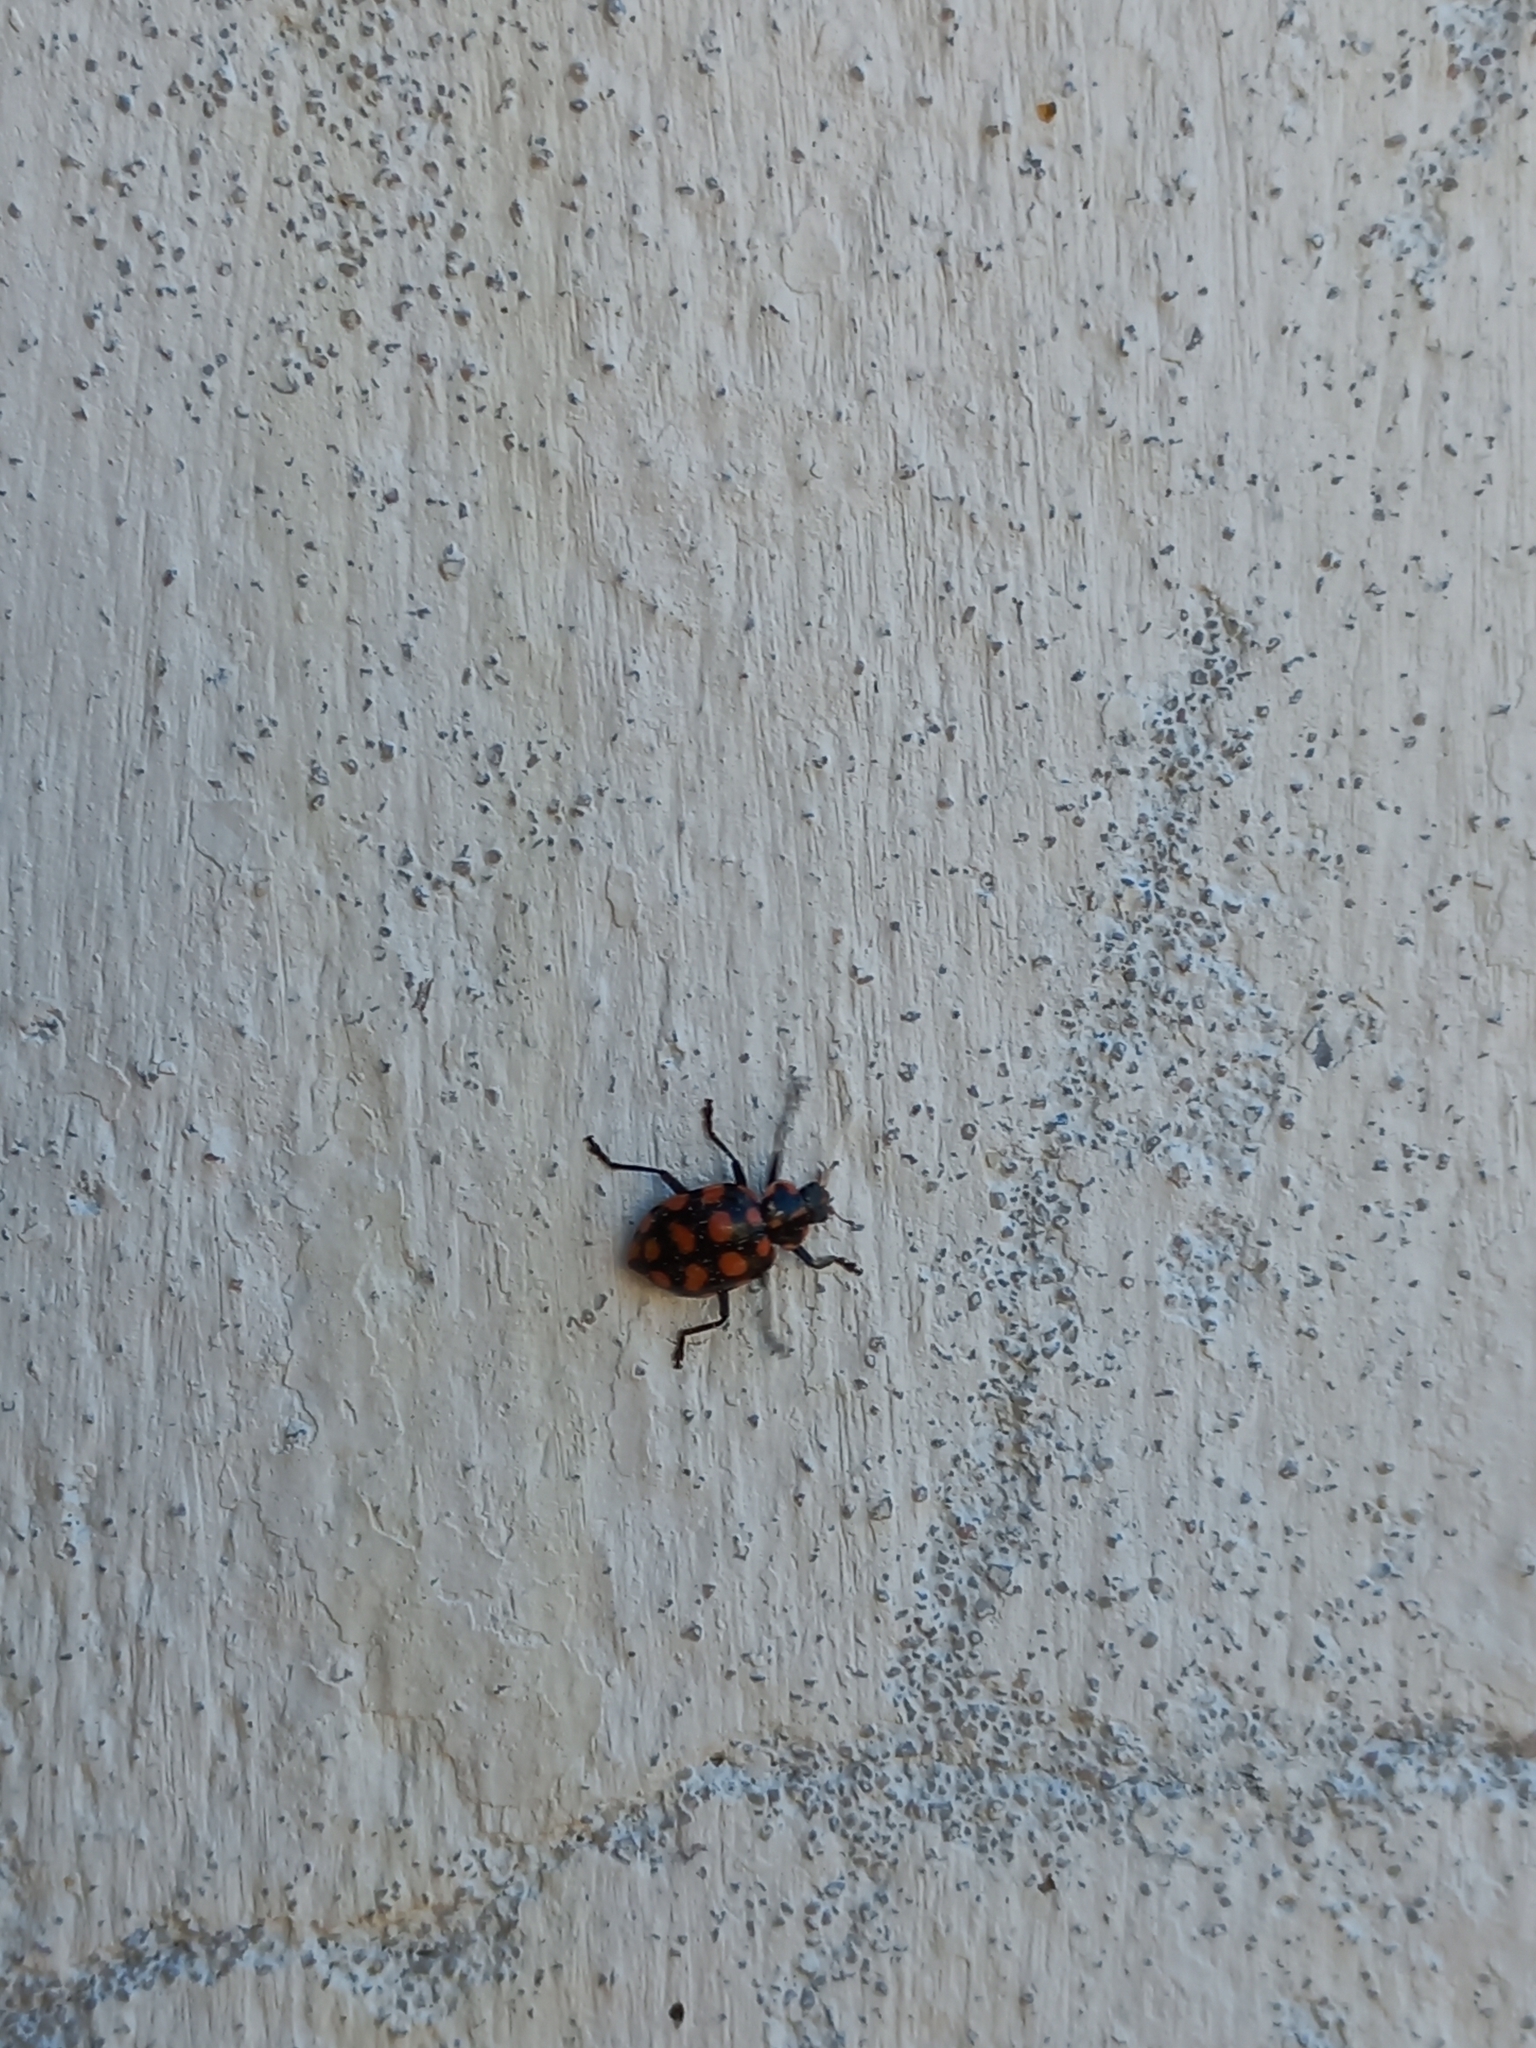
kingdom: Animalia
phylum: Arthropoda
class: Insecta
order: Coleoptera
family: Coccinellidae
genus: Coleomegilla
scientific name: Coleomegilla
